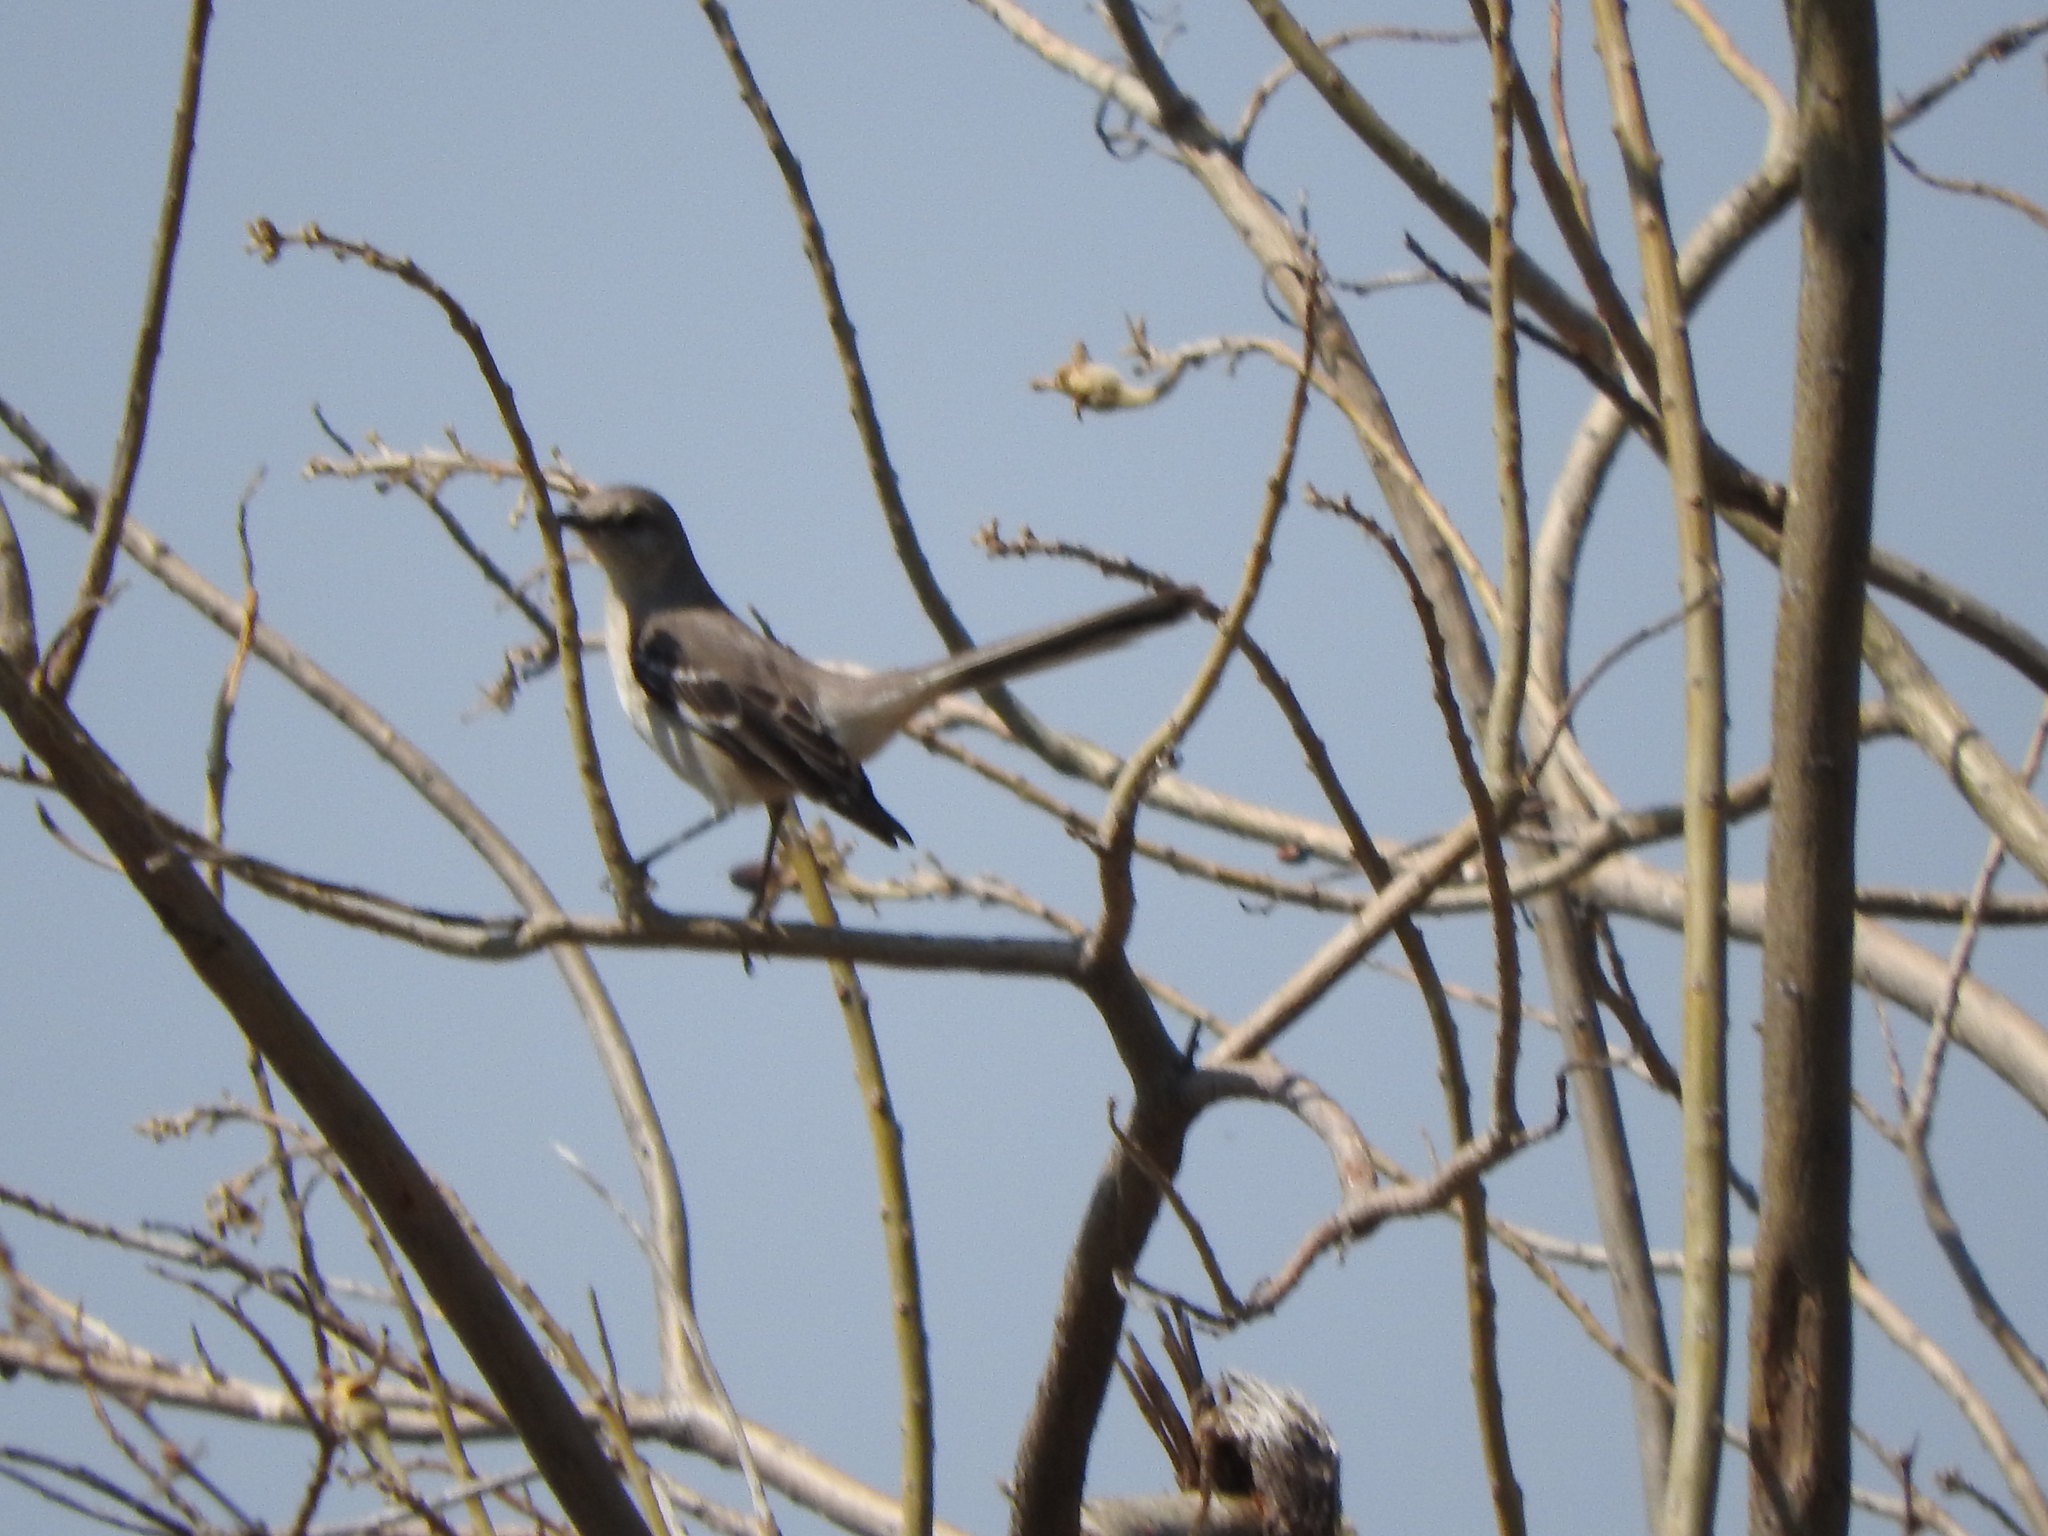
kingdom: Animalia
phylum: Chordata
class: Aves
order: Passeriformes
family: Mimidae
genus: Mimus
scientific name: Mimus polyglottos
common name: Northern mockingbird
